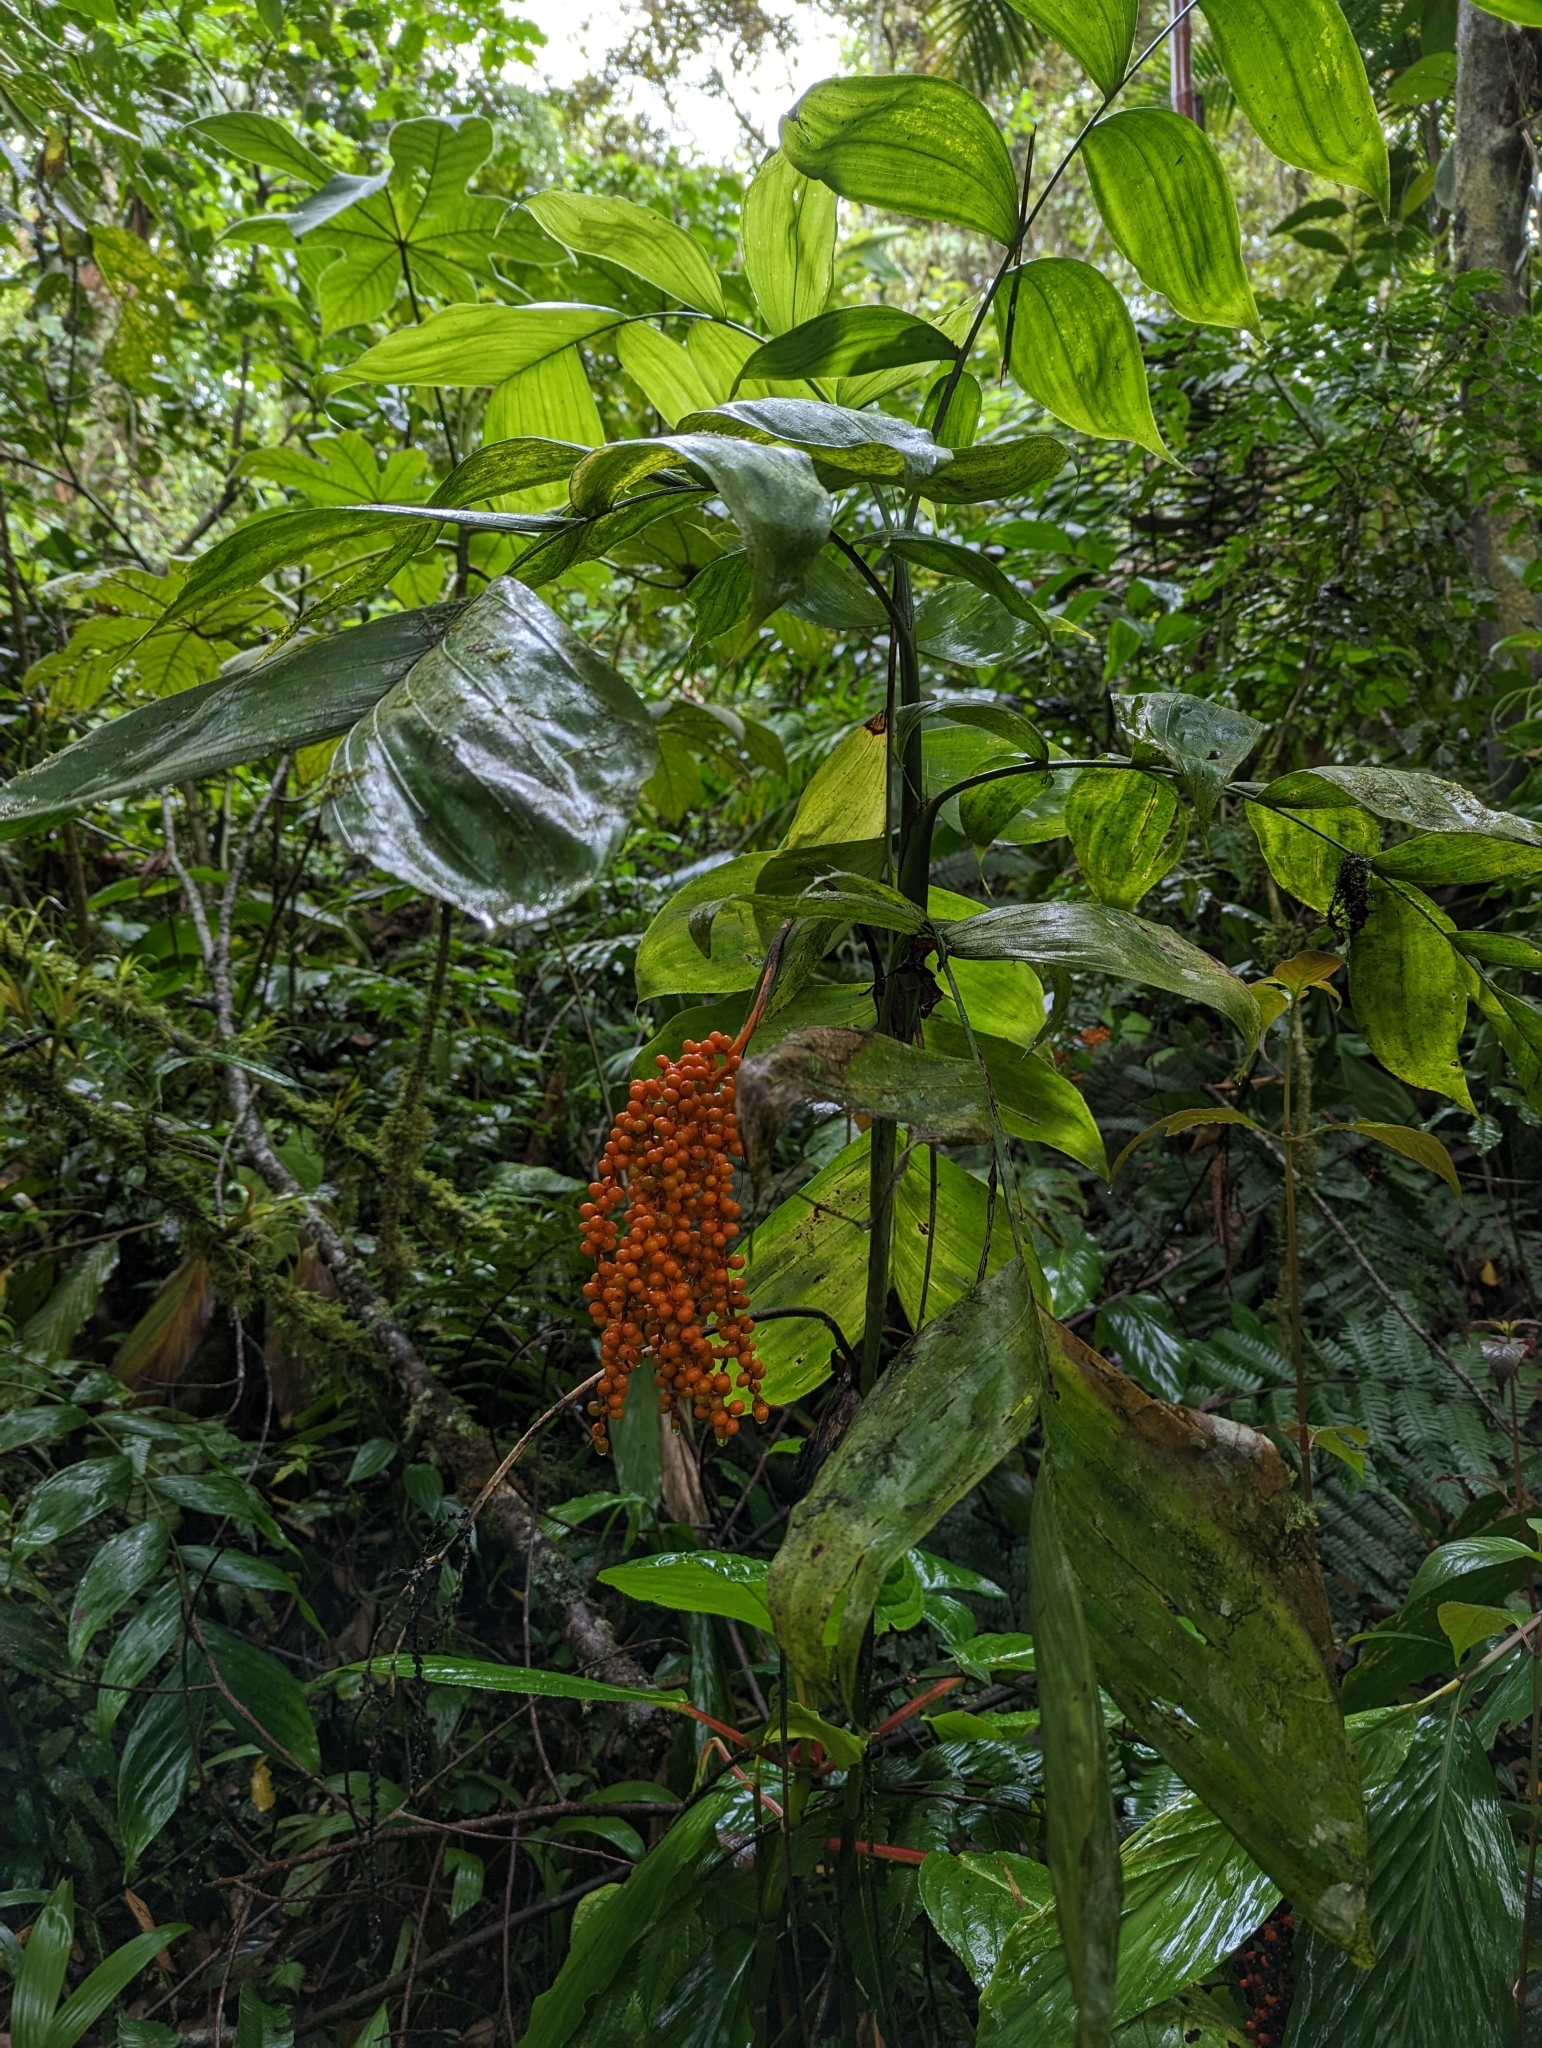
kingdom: Plantae
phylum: Tracheophyta
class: Liliopsida
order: Arecales
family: Arecaceae
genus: Chamaedorea
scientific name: Chamaedorea pinnatifrons
